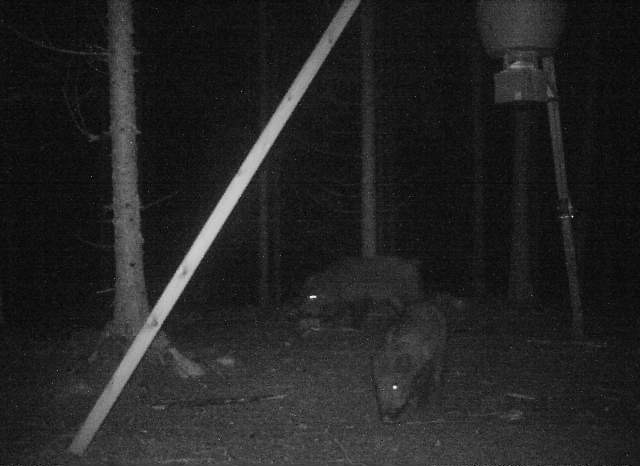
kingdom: Animalia
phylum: Chordata
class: Mammalia
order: Artiodactyla
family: Suidae
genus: Sus
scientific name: Sus scrofa
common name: Wild boar
